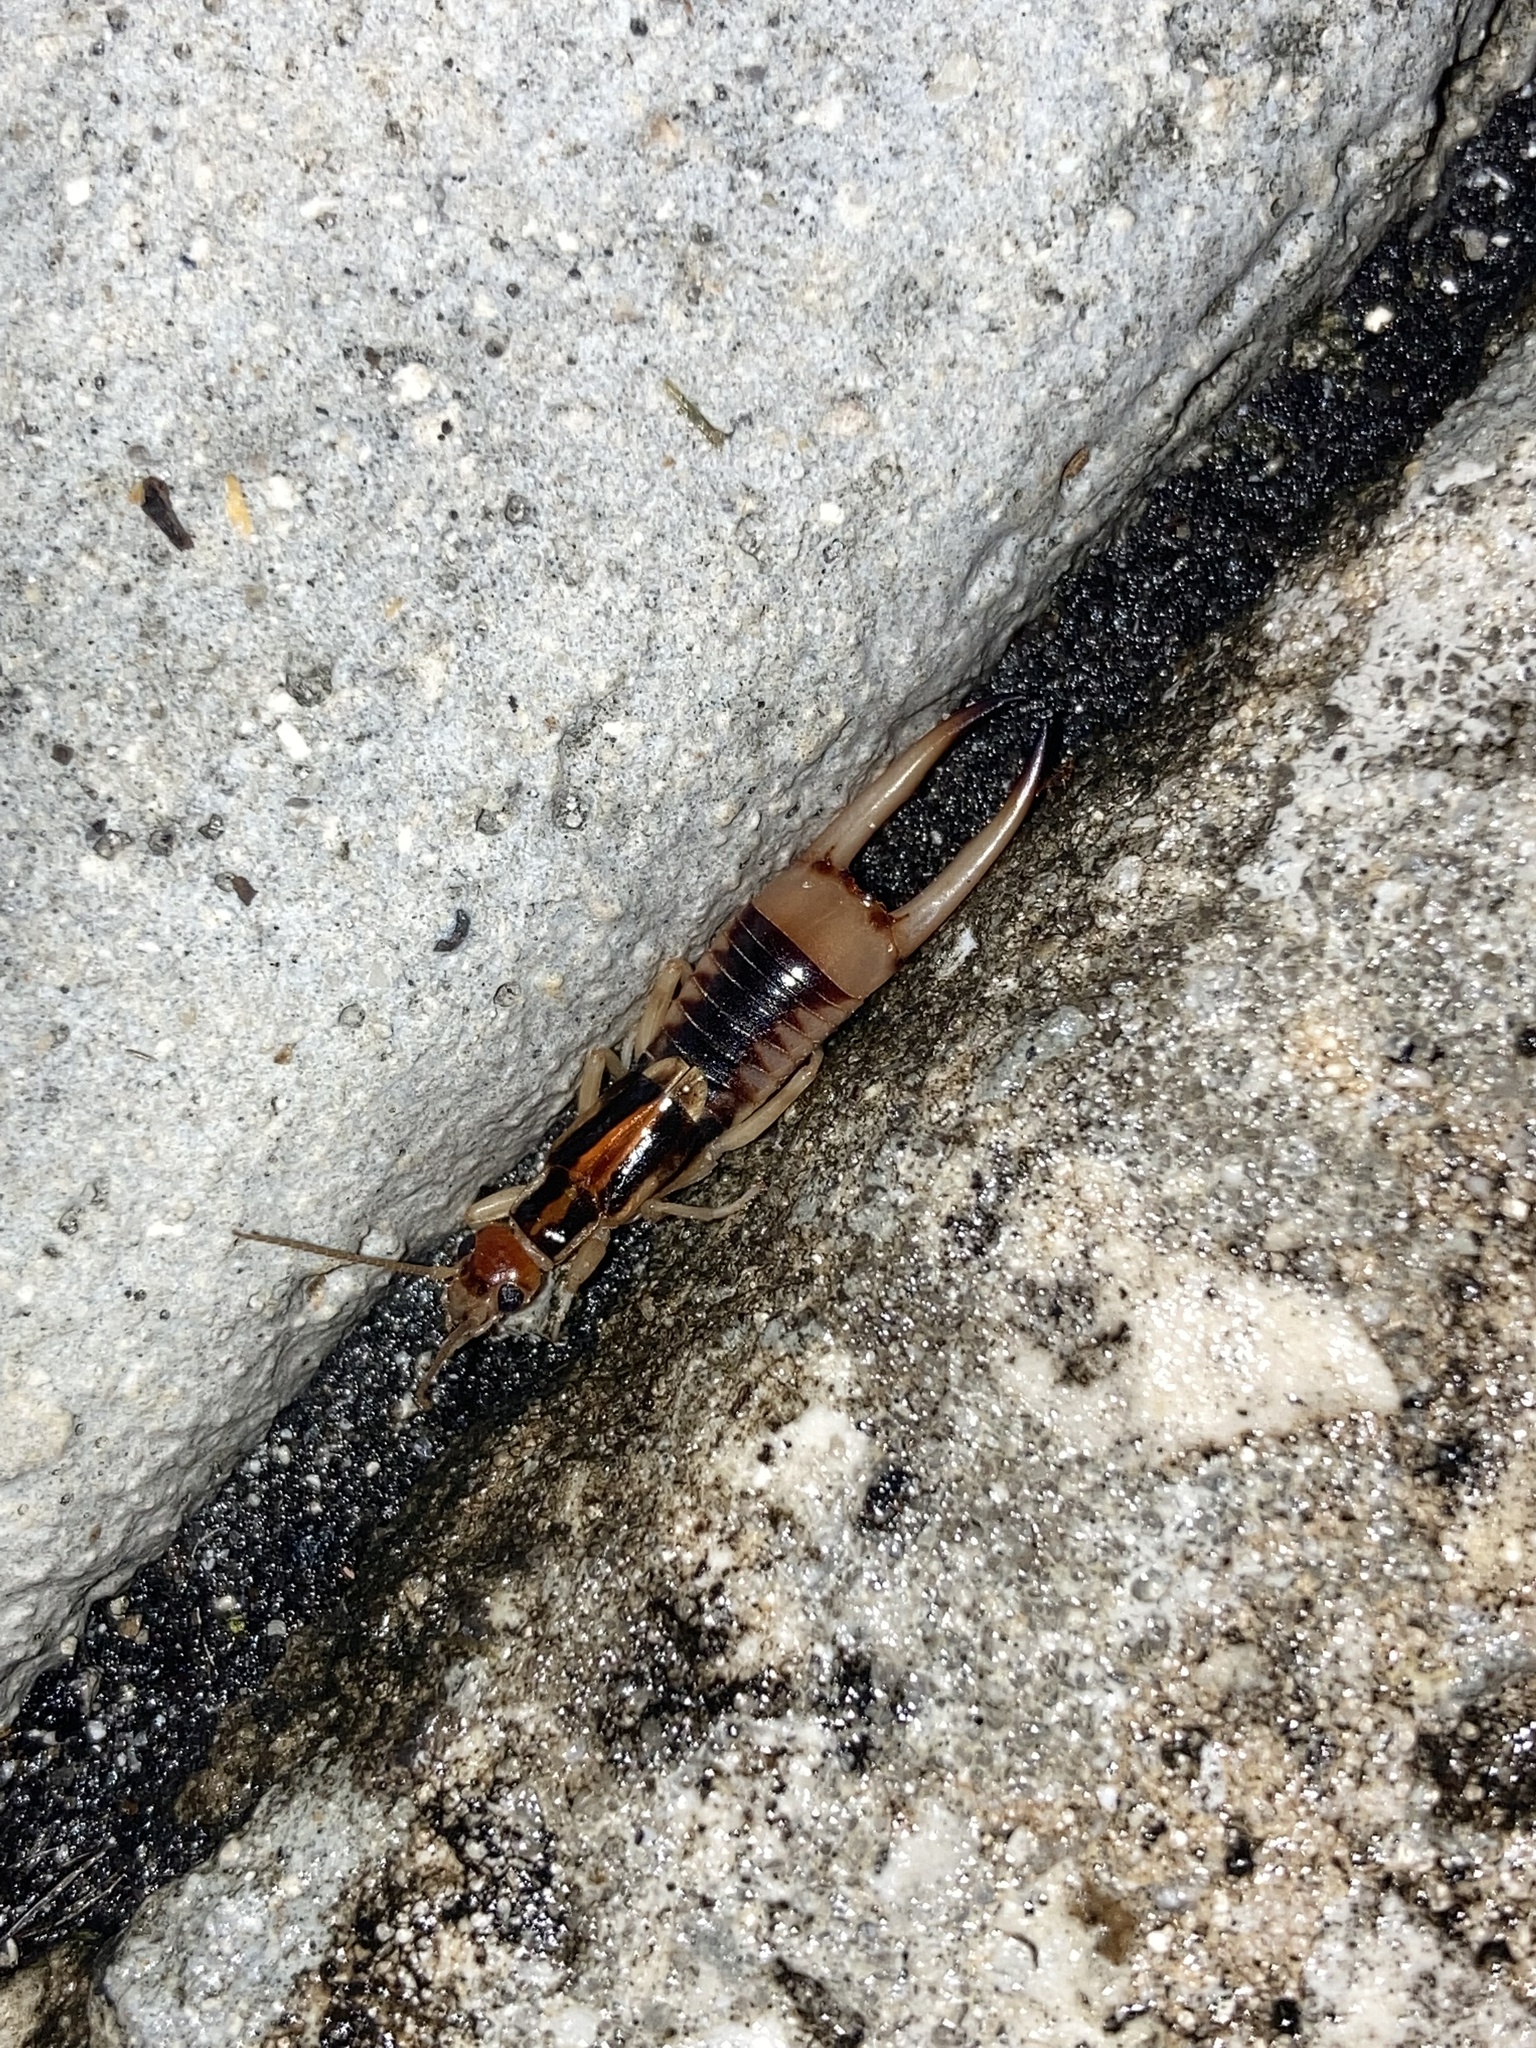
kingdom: Animalia
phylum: Arthropoda
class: Insecta
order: Dermaptera
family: Labiduridae
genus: Labidura
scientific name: Labidura riparia
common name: Striped earwig
